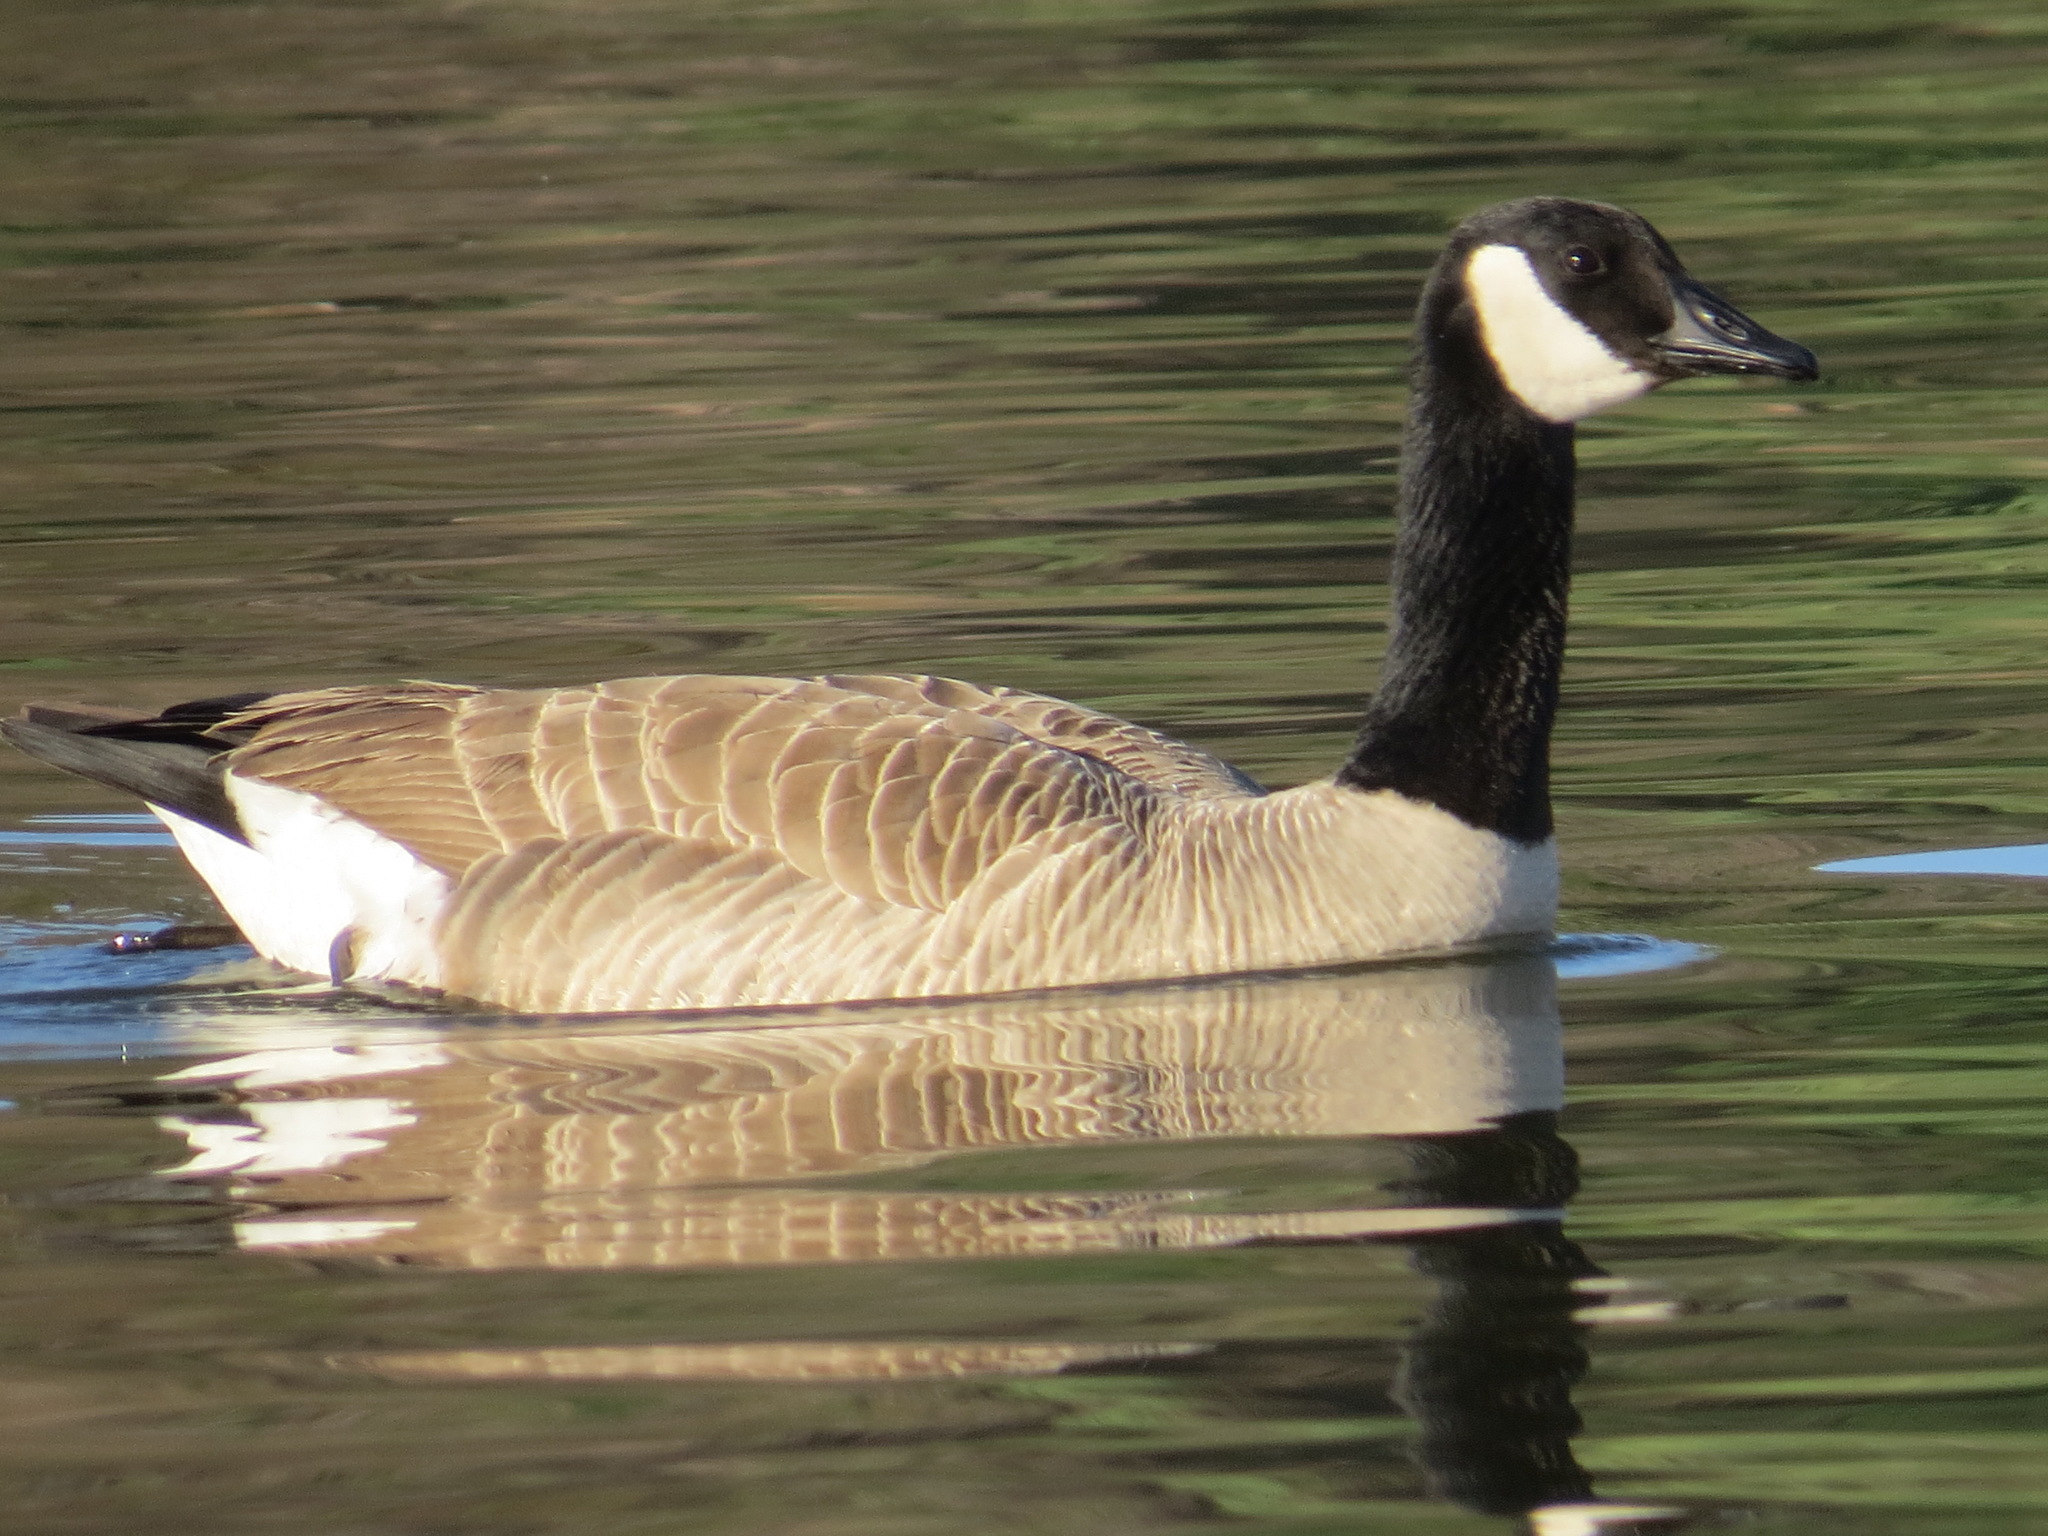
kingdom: Animalia
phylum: Chordata
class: Aves
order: Anseriformes
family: Anatidae
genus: Branta
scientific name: Branta canadensis
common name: Canada goose
